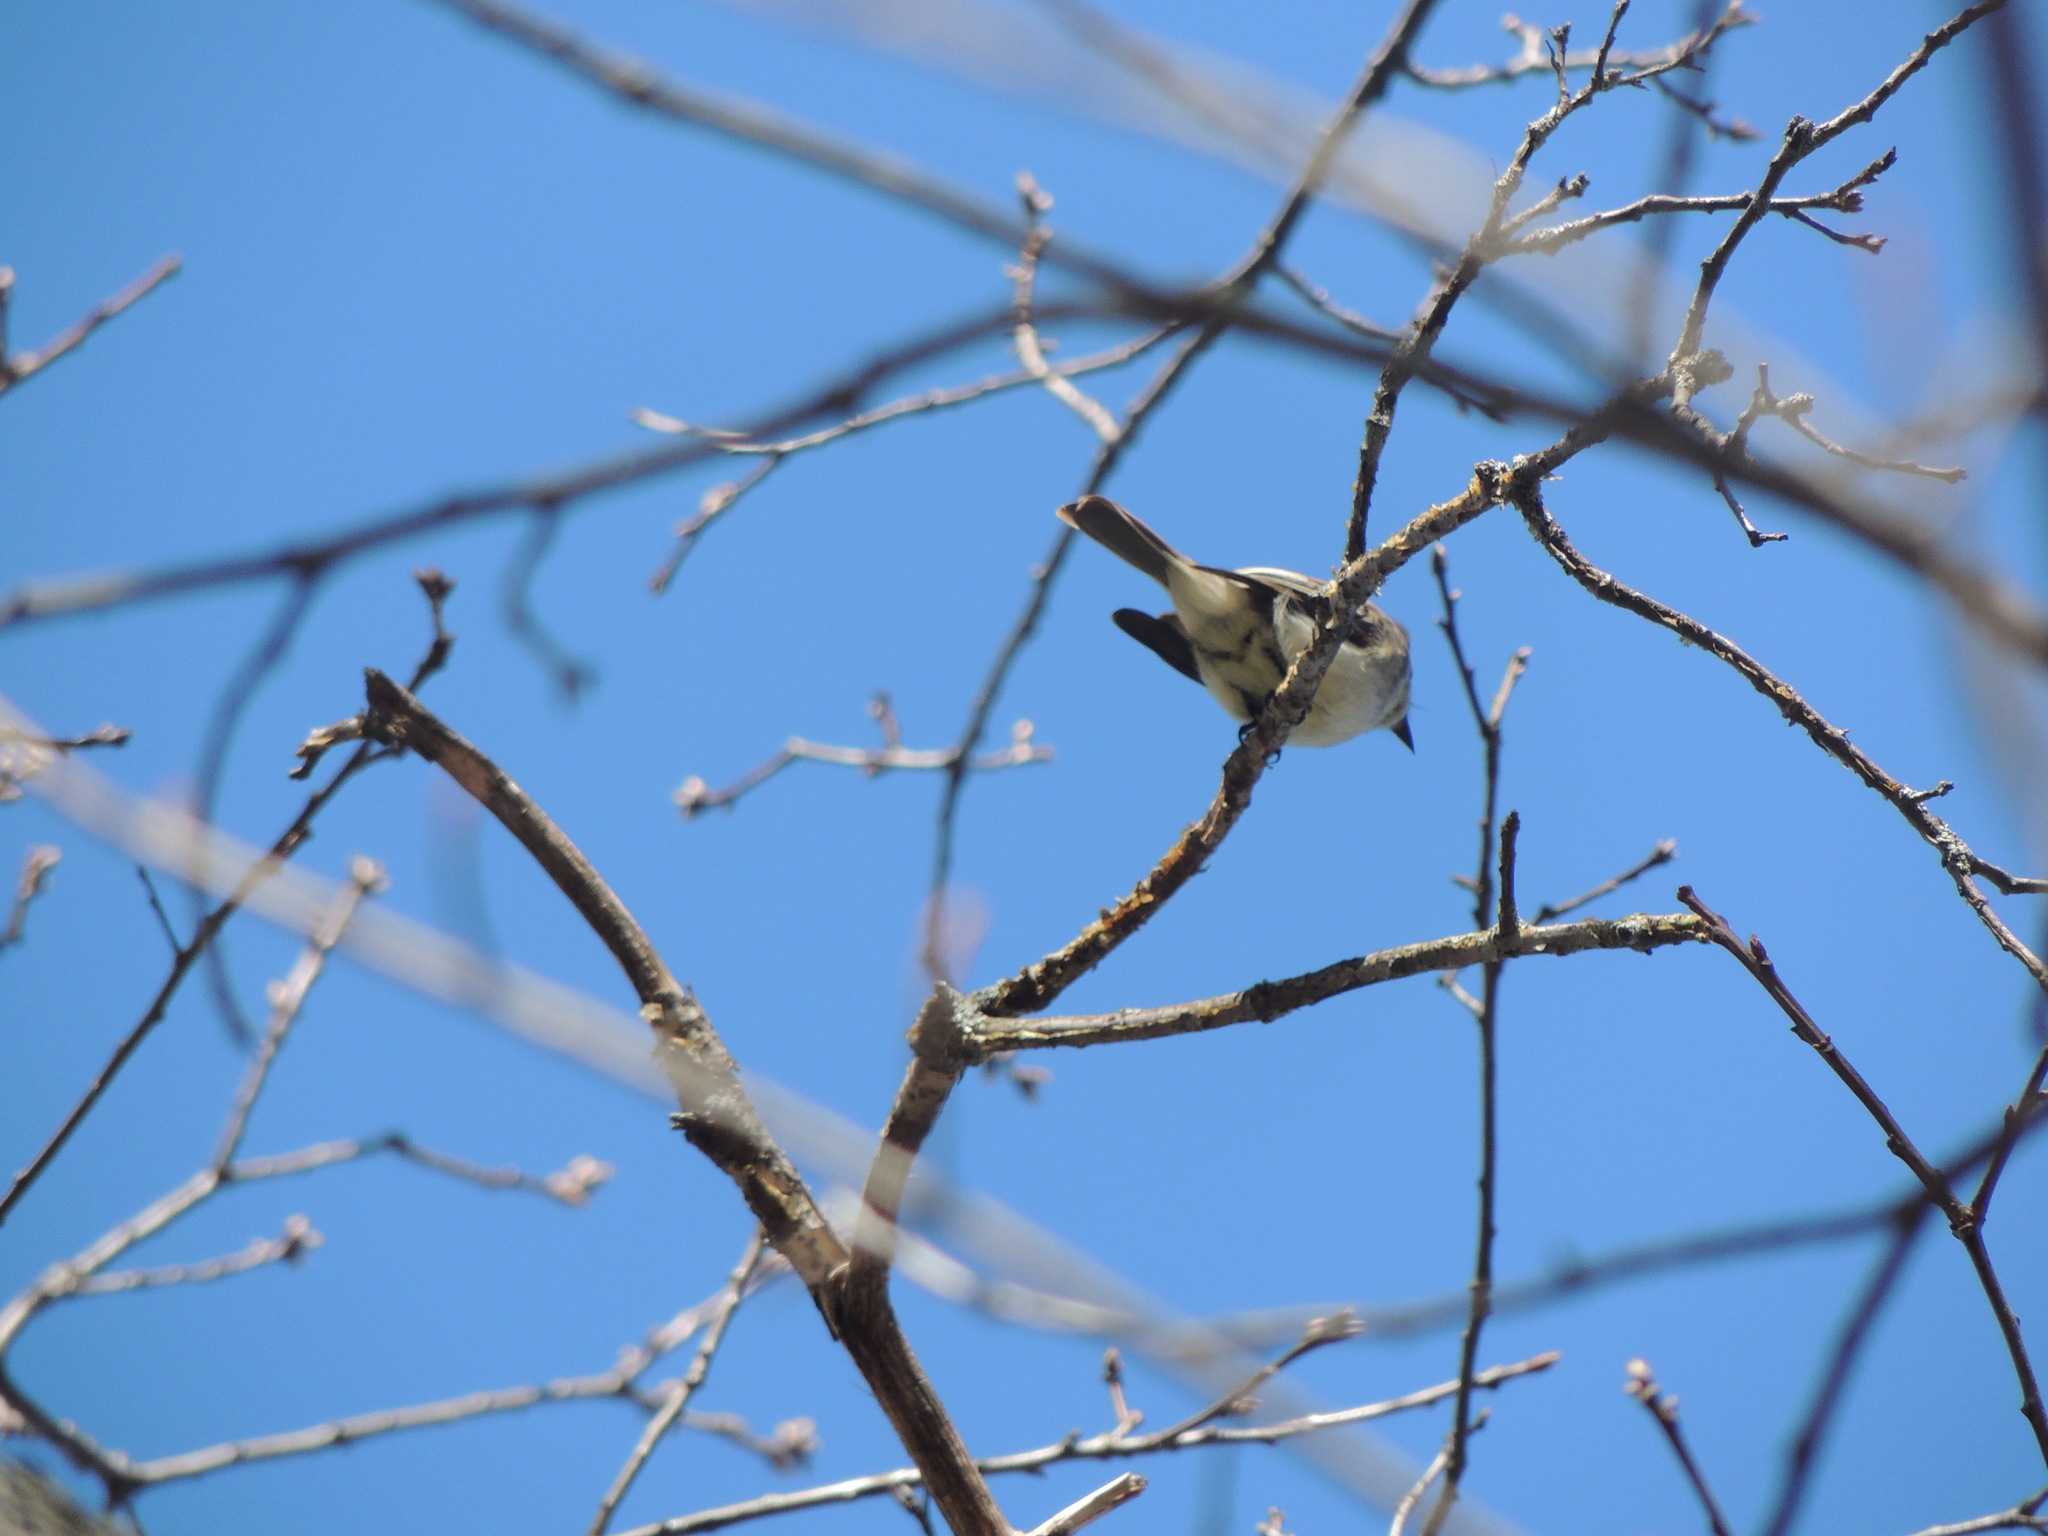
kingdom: Animalia
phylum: Chordata
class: Aves
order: Passeriformes
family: Tyrannidae
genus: Sayornis
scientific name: Sayornis phoebe
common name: Eastern phoebe
